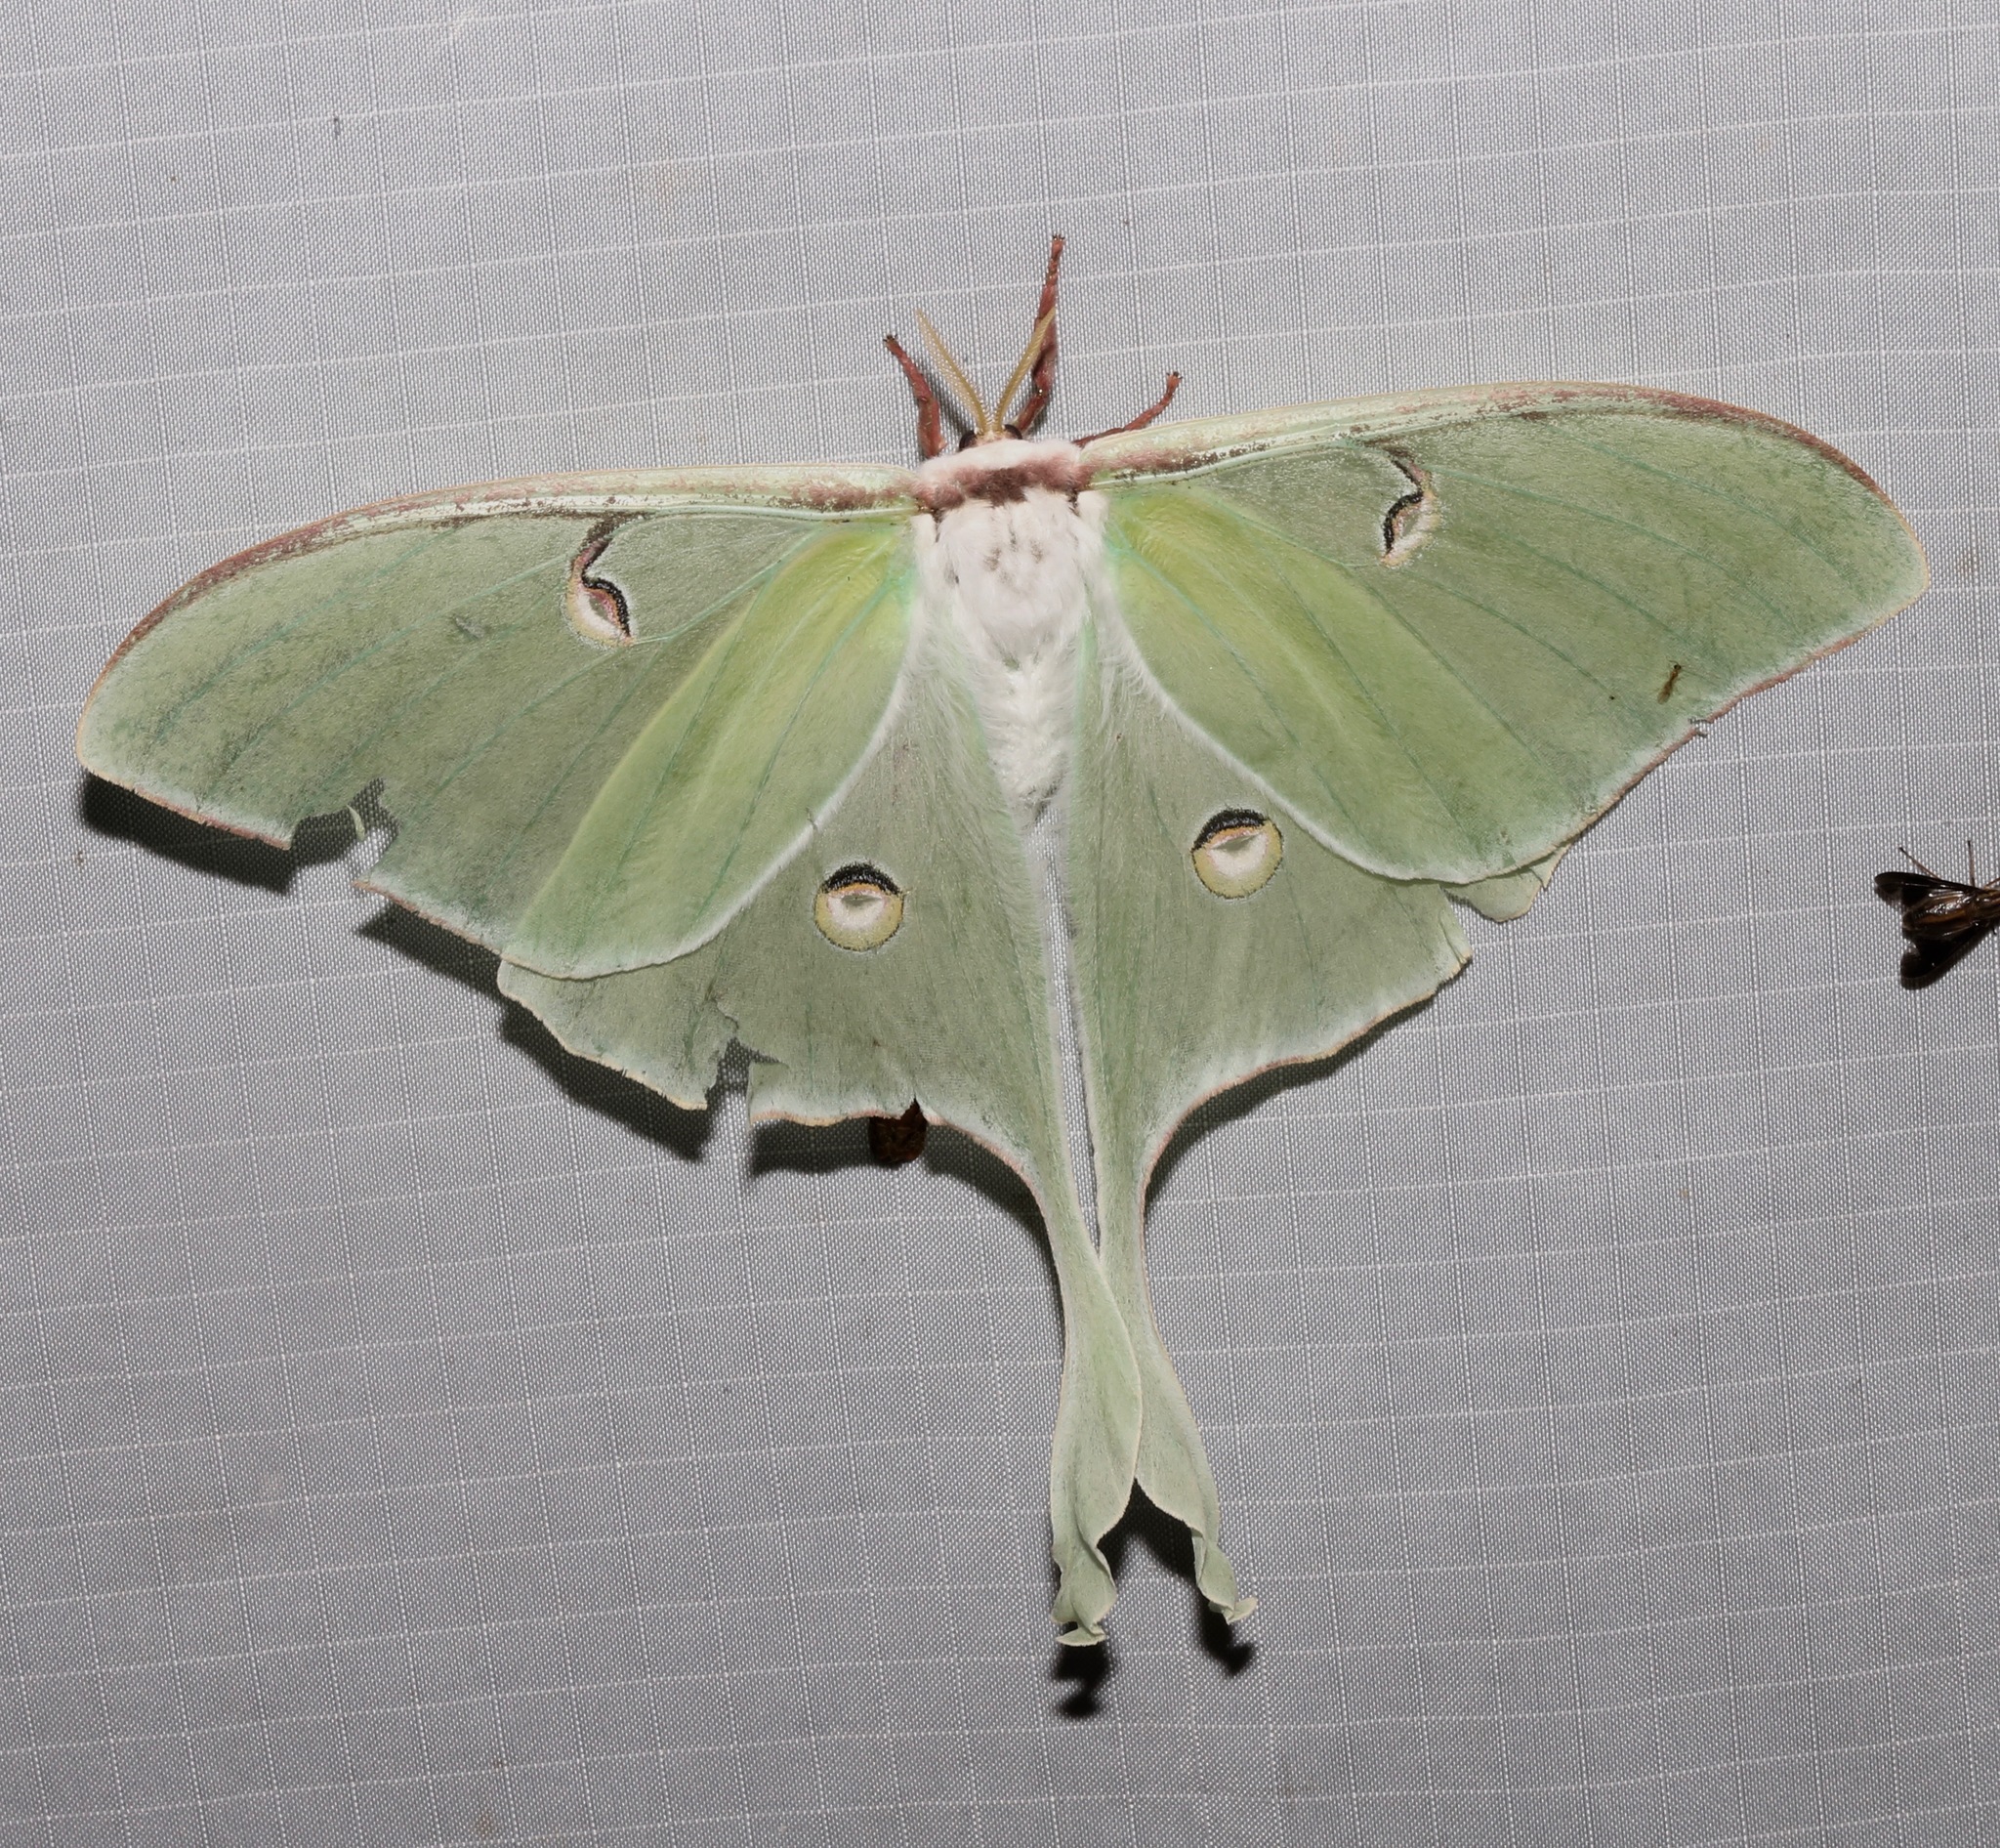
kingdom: Animalia
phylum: Arthropoda
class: Insecta
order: Lepidoptera
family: Saturniidae
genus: Actias
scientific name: Actias luna
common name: Luna moth
